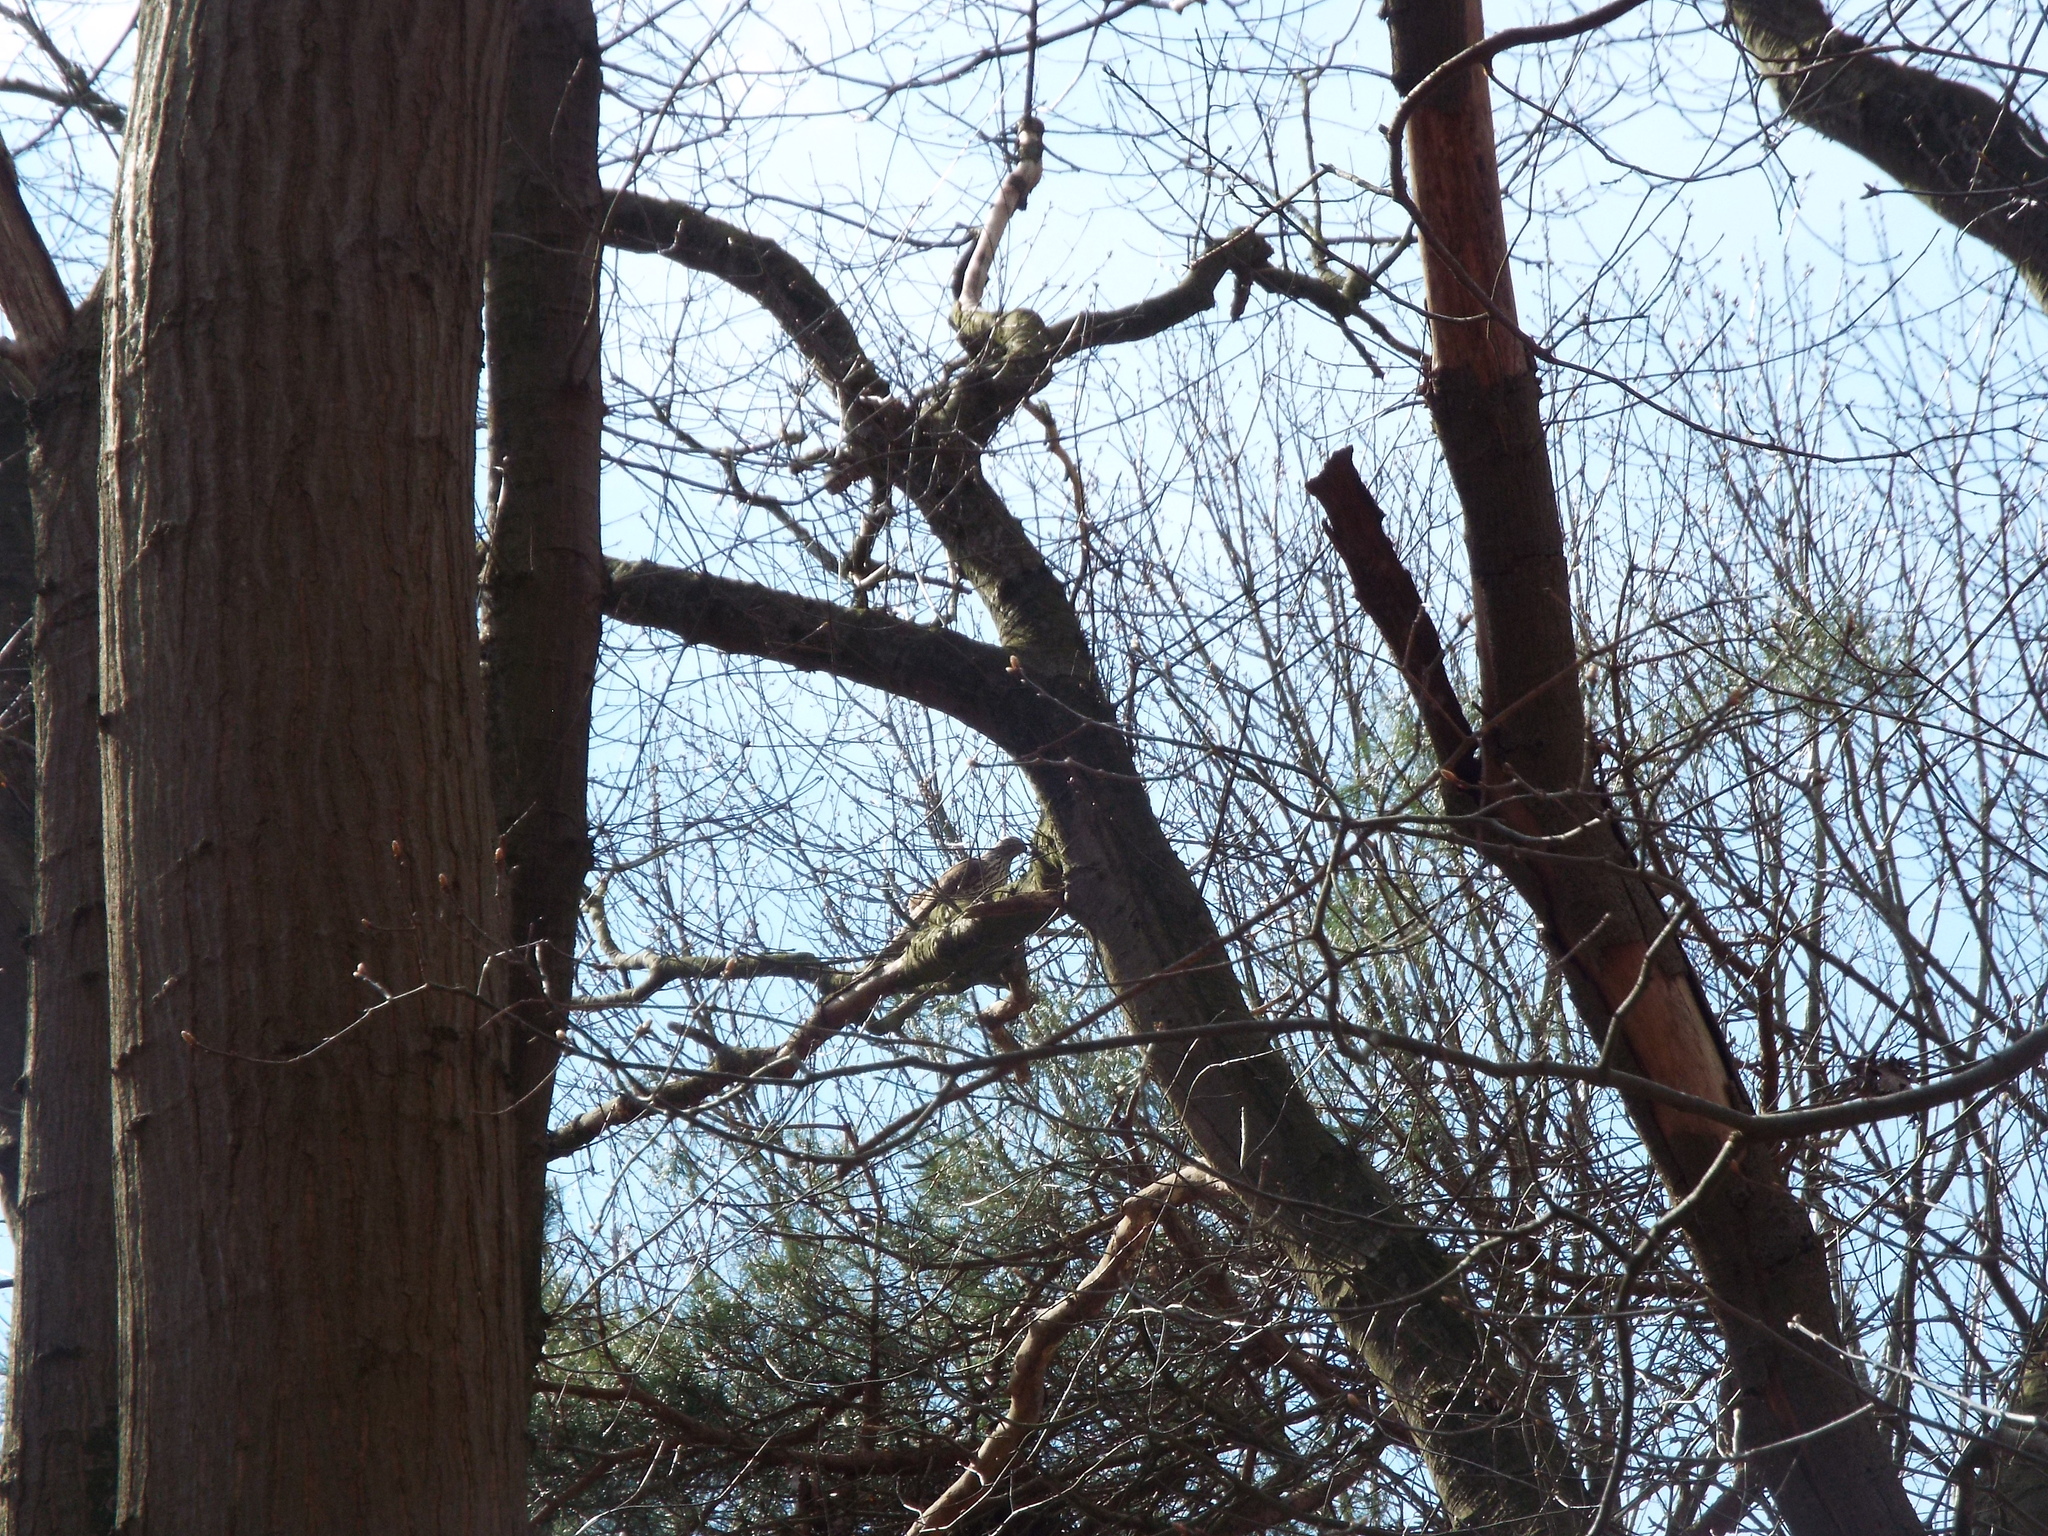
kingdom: Animalia
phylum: Chordata
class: Aves
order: Accipitriformes
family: Accipitridae
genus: Accipiter
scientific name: Accipiter gentilis
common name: Northern goshawk
